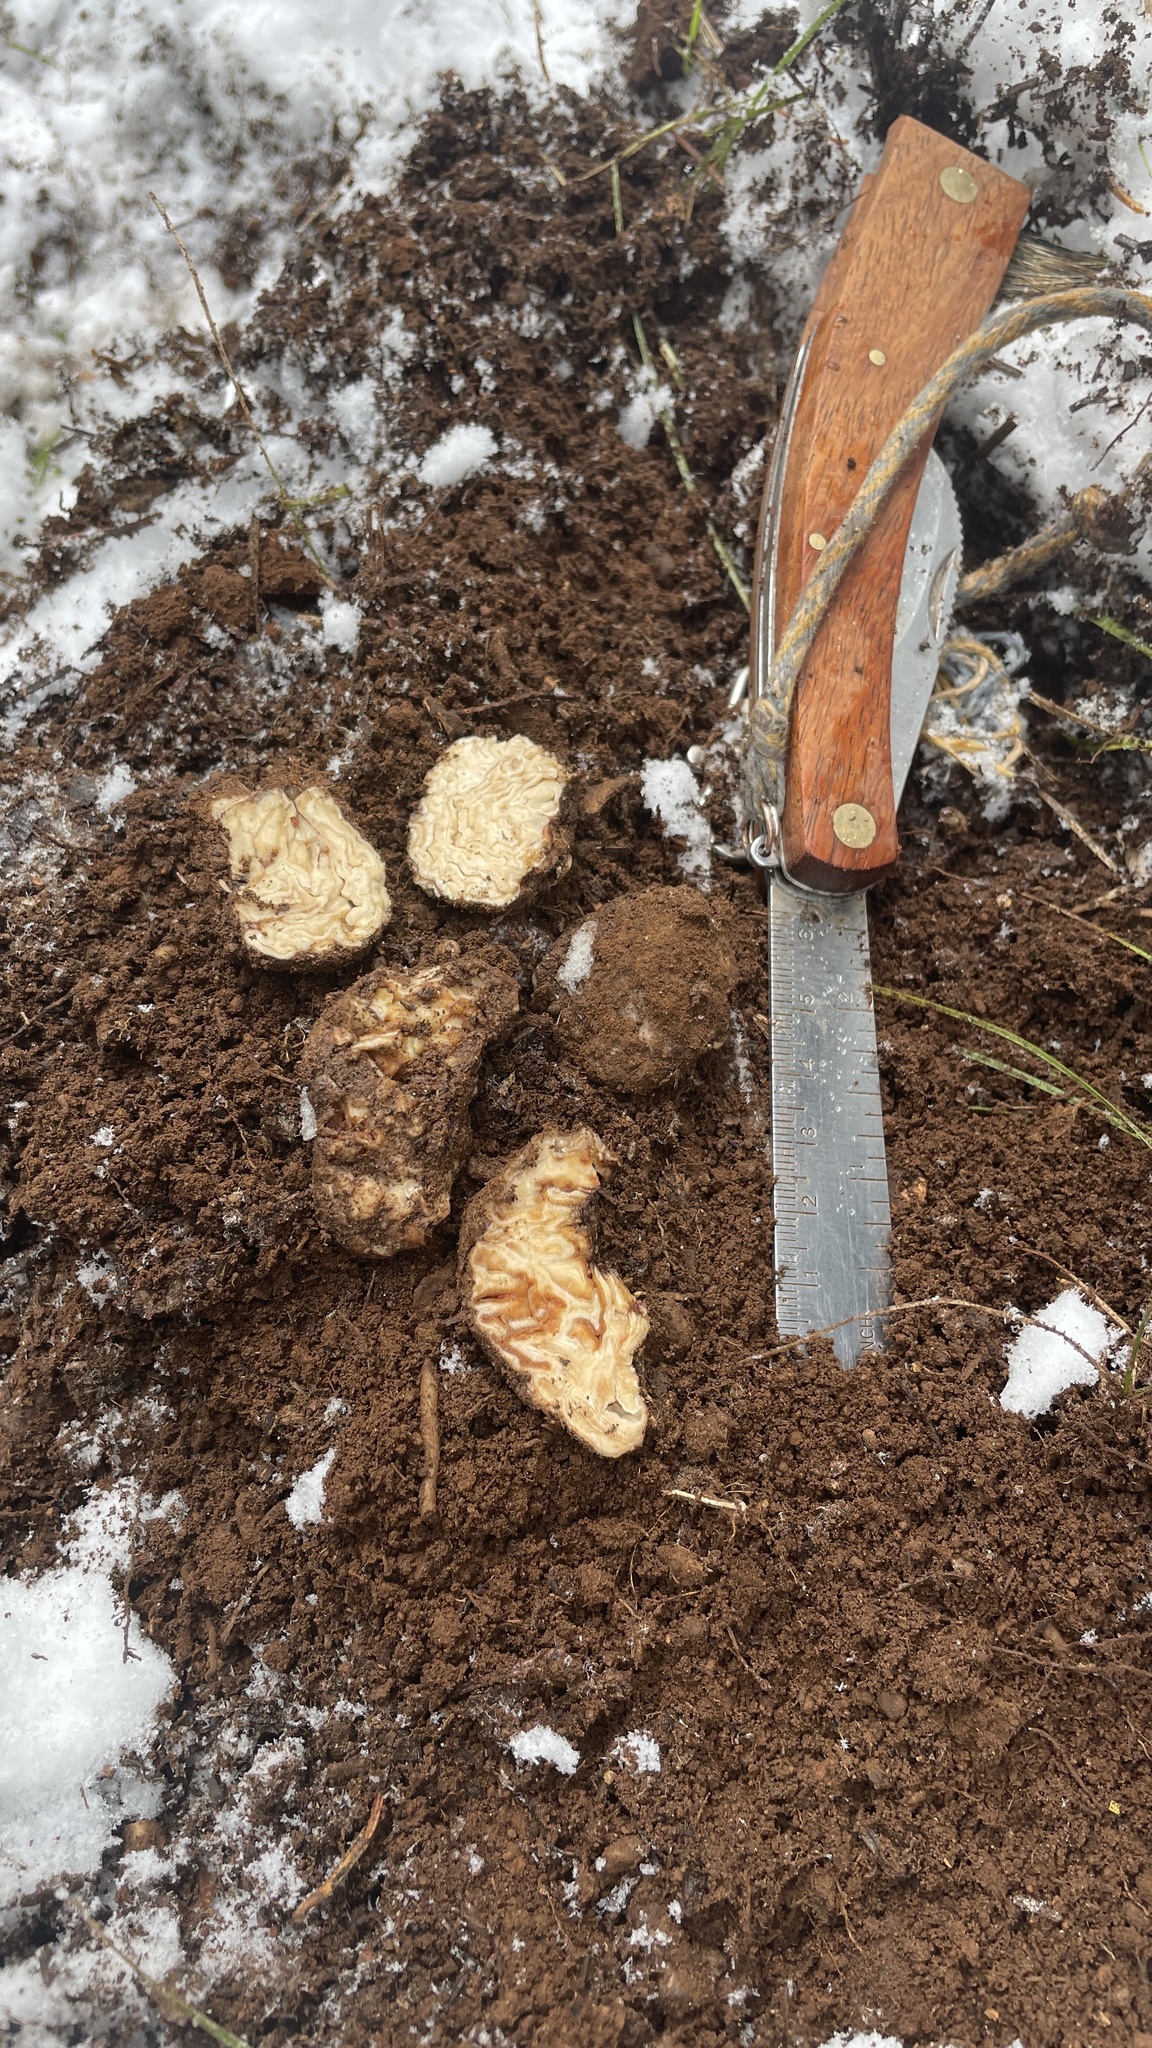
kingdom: Fungi
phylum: Ascomycota
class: Pezizomycetes
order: Pezizales
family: Pyronemataceae
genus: Geopora
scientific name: Geopora cooperi
